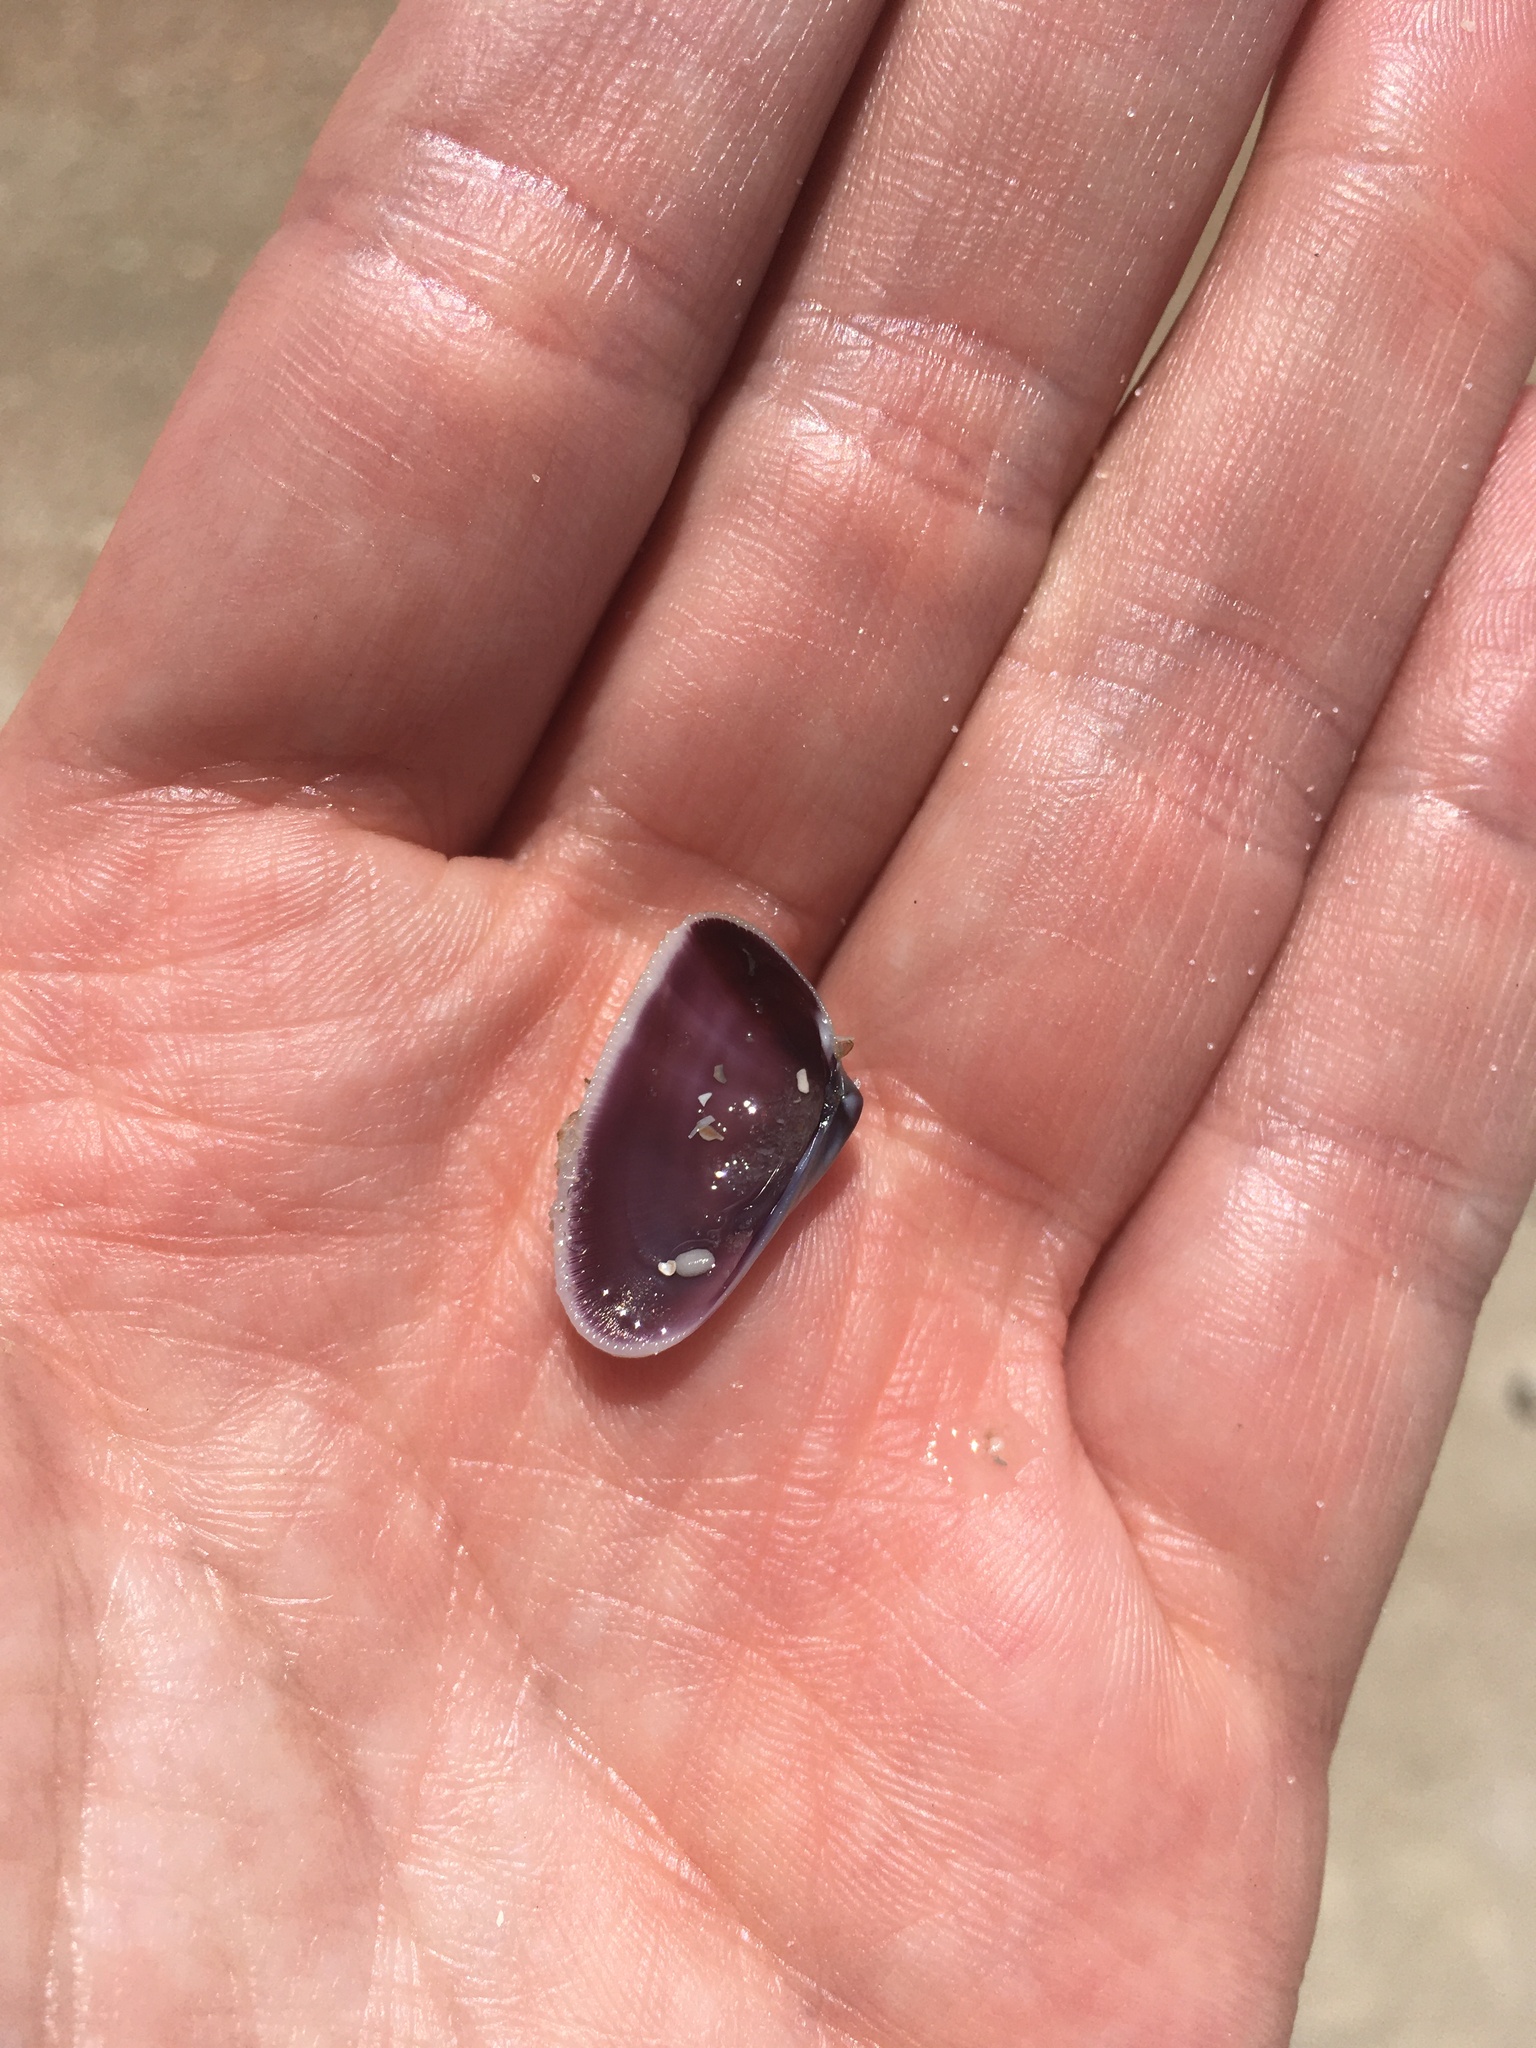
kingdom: Animalia
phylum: Mollusca
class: Bivalvia
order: Cardiida
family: Donacidae
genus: Donax
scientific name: Donax variabilis
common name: Butterfly shell
